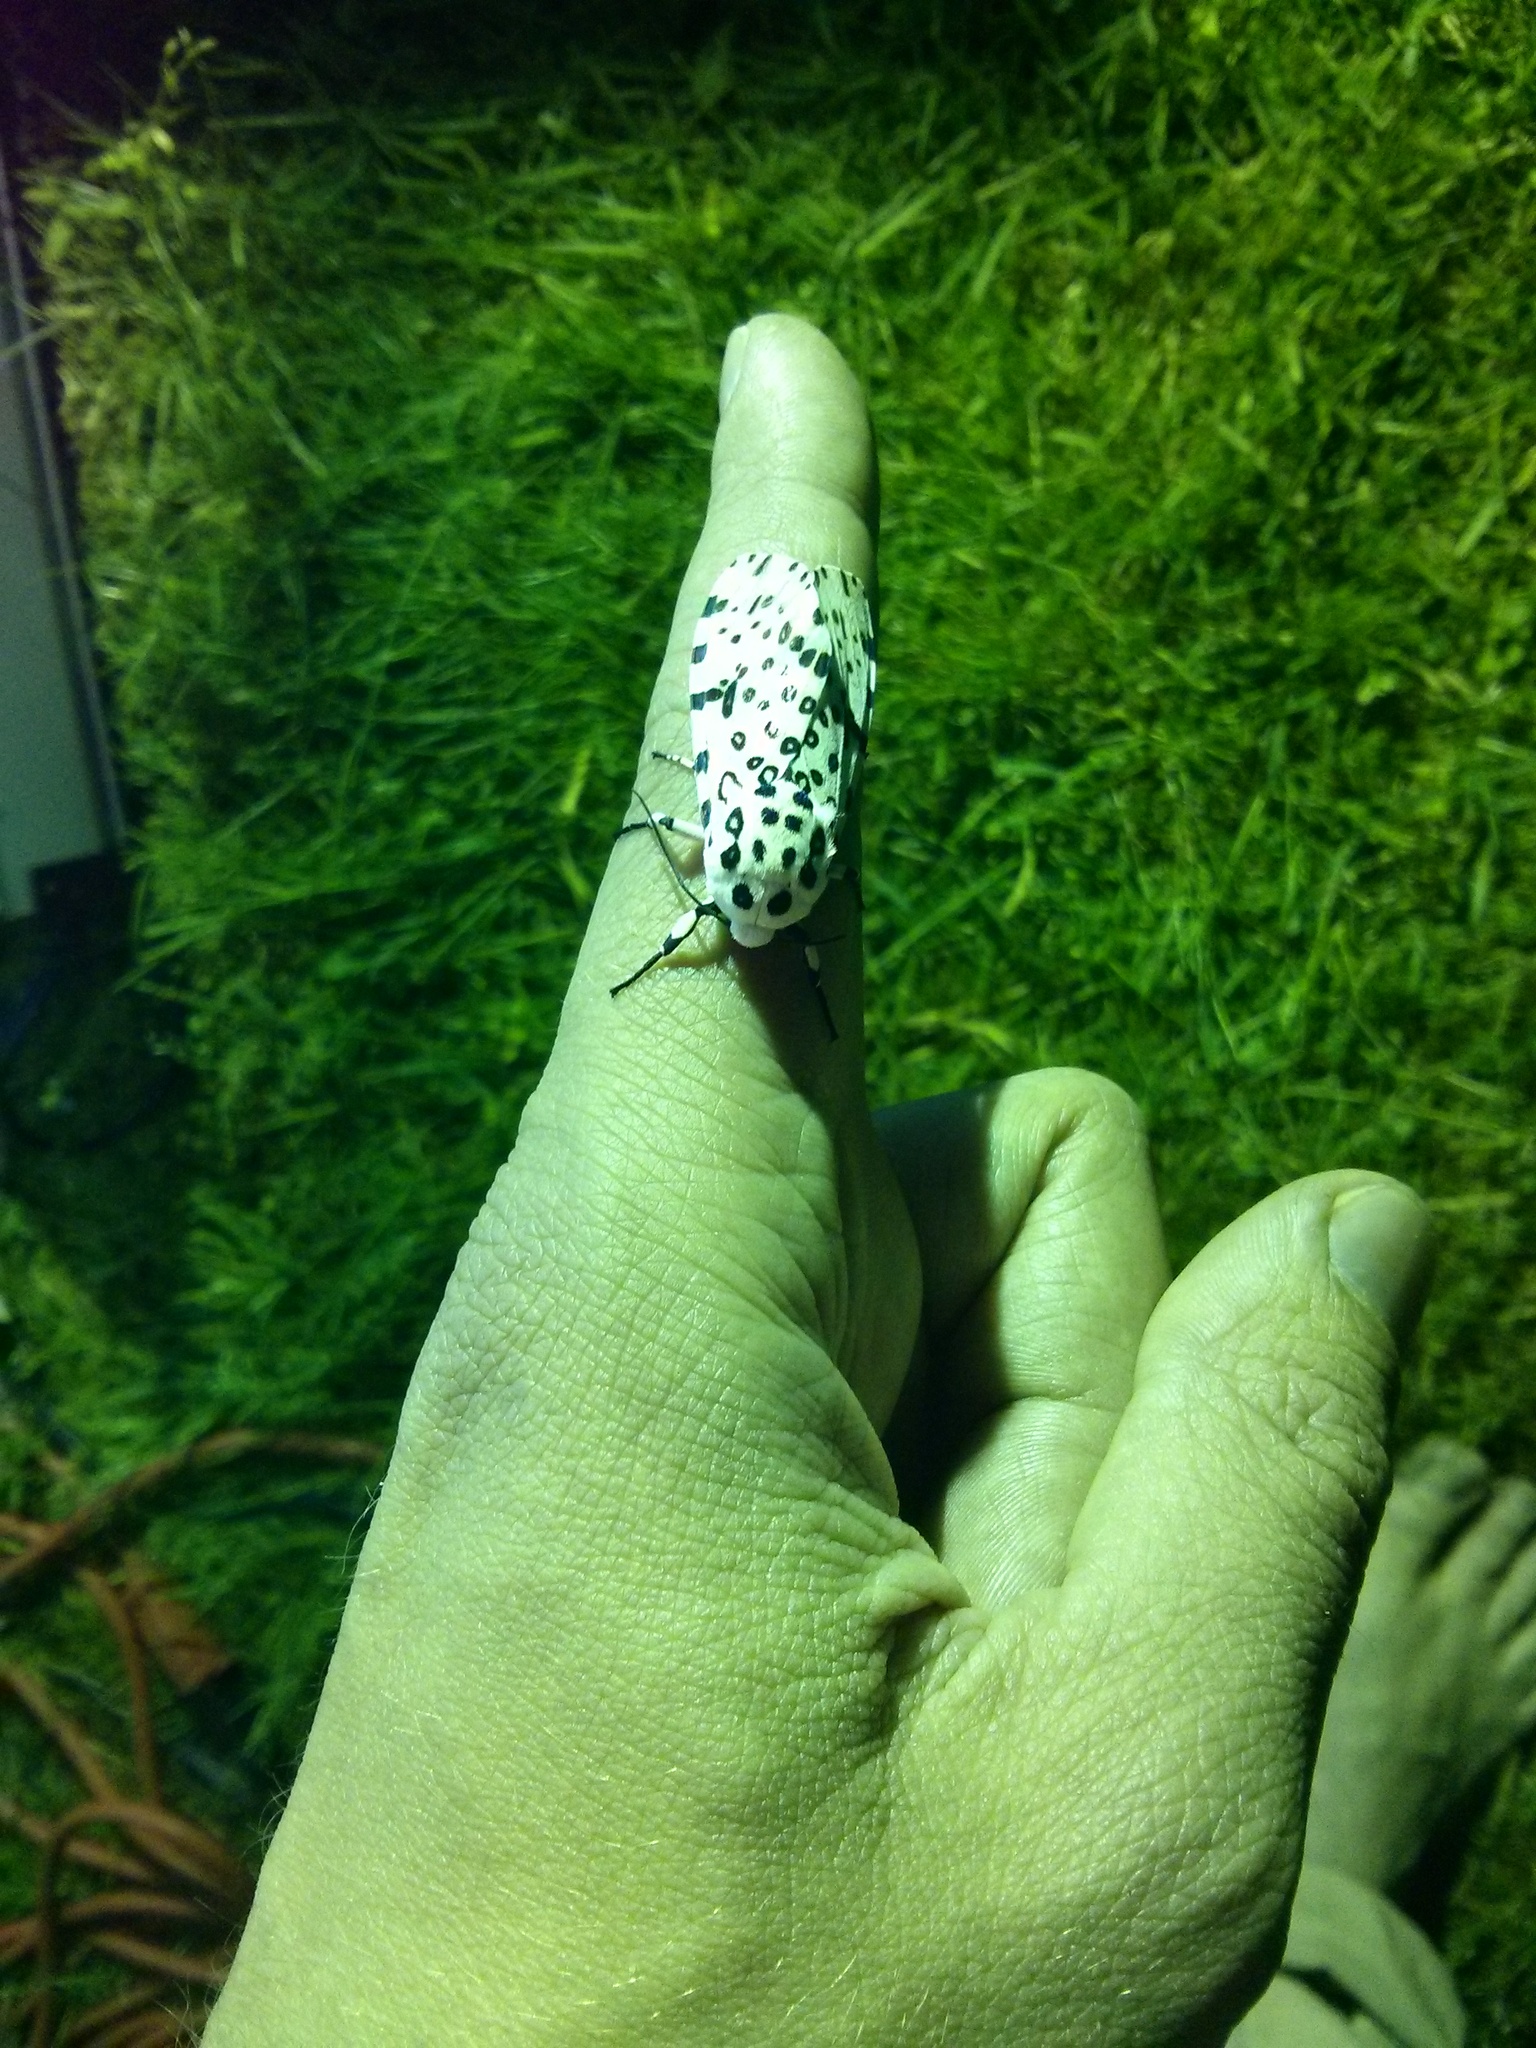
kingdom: Animalia
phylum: Arthropoda
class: Insecta
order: Lepidoptera
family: Erebidae
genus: Hypercompe
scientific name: Hypercompe scribonia
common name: Giant leopard moth
